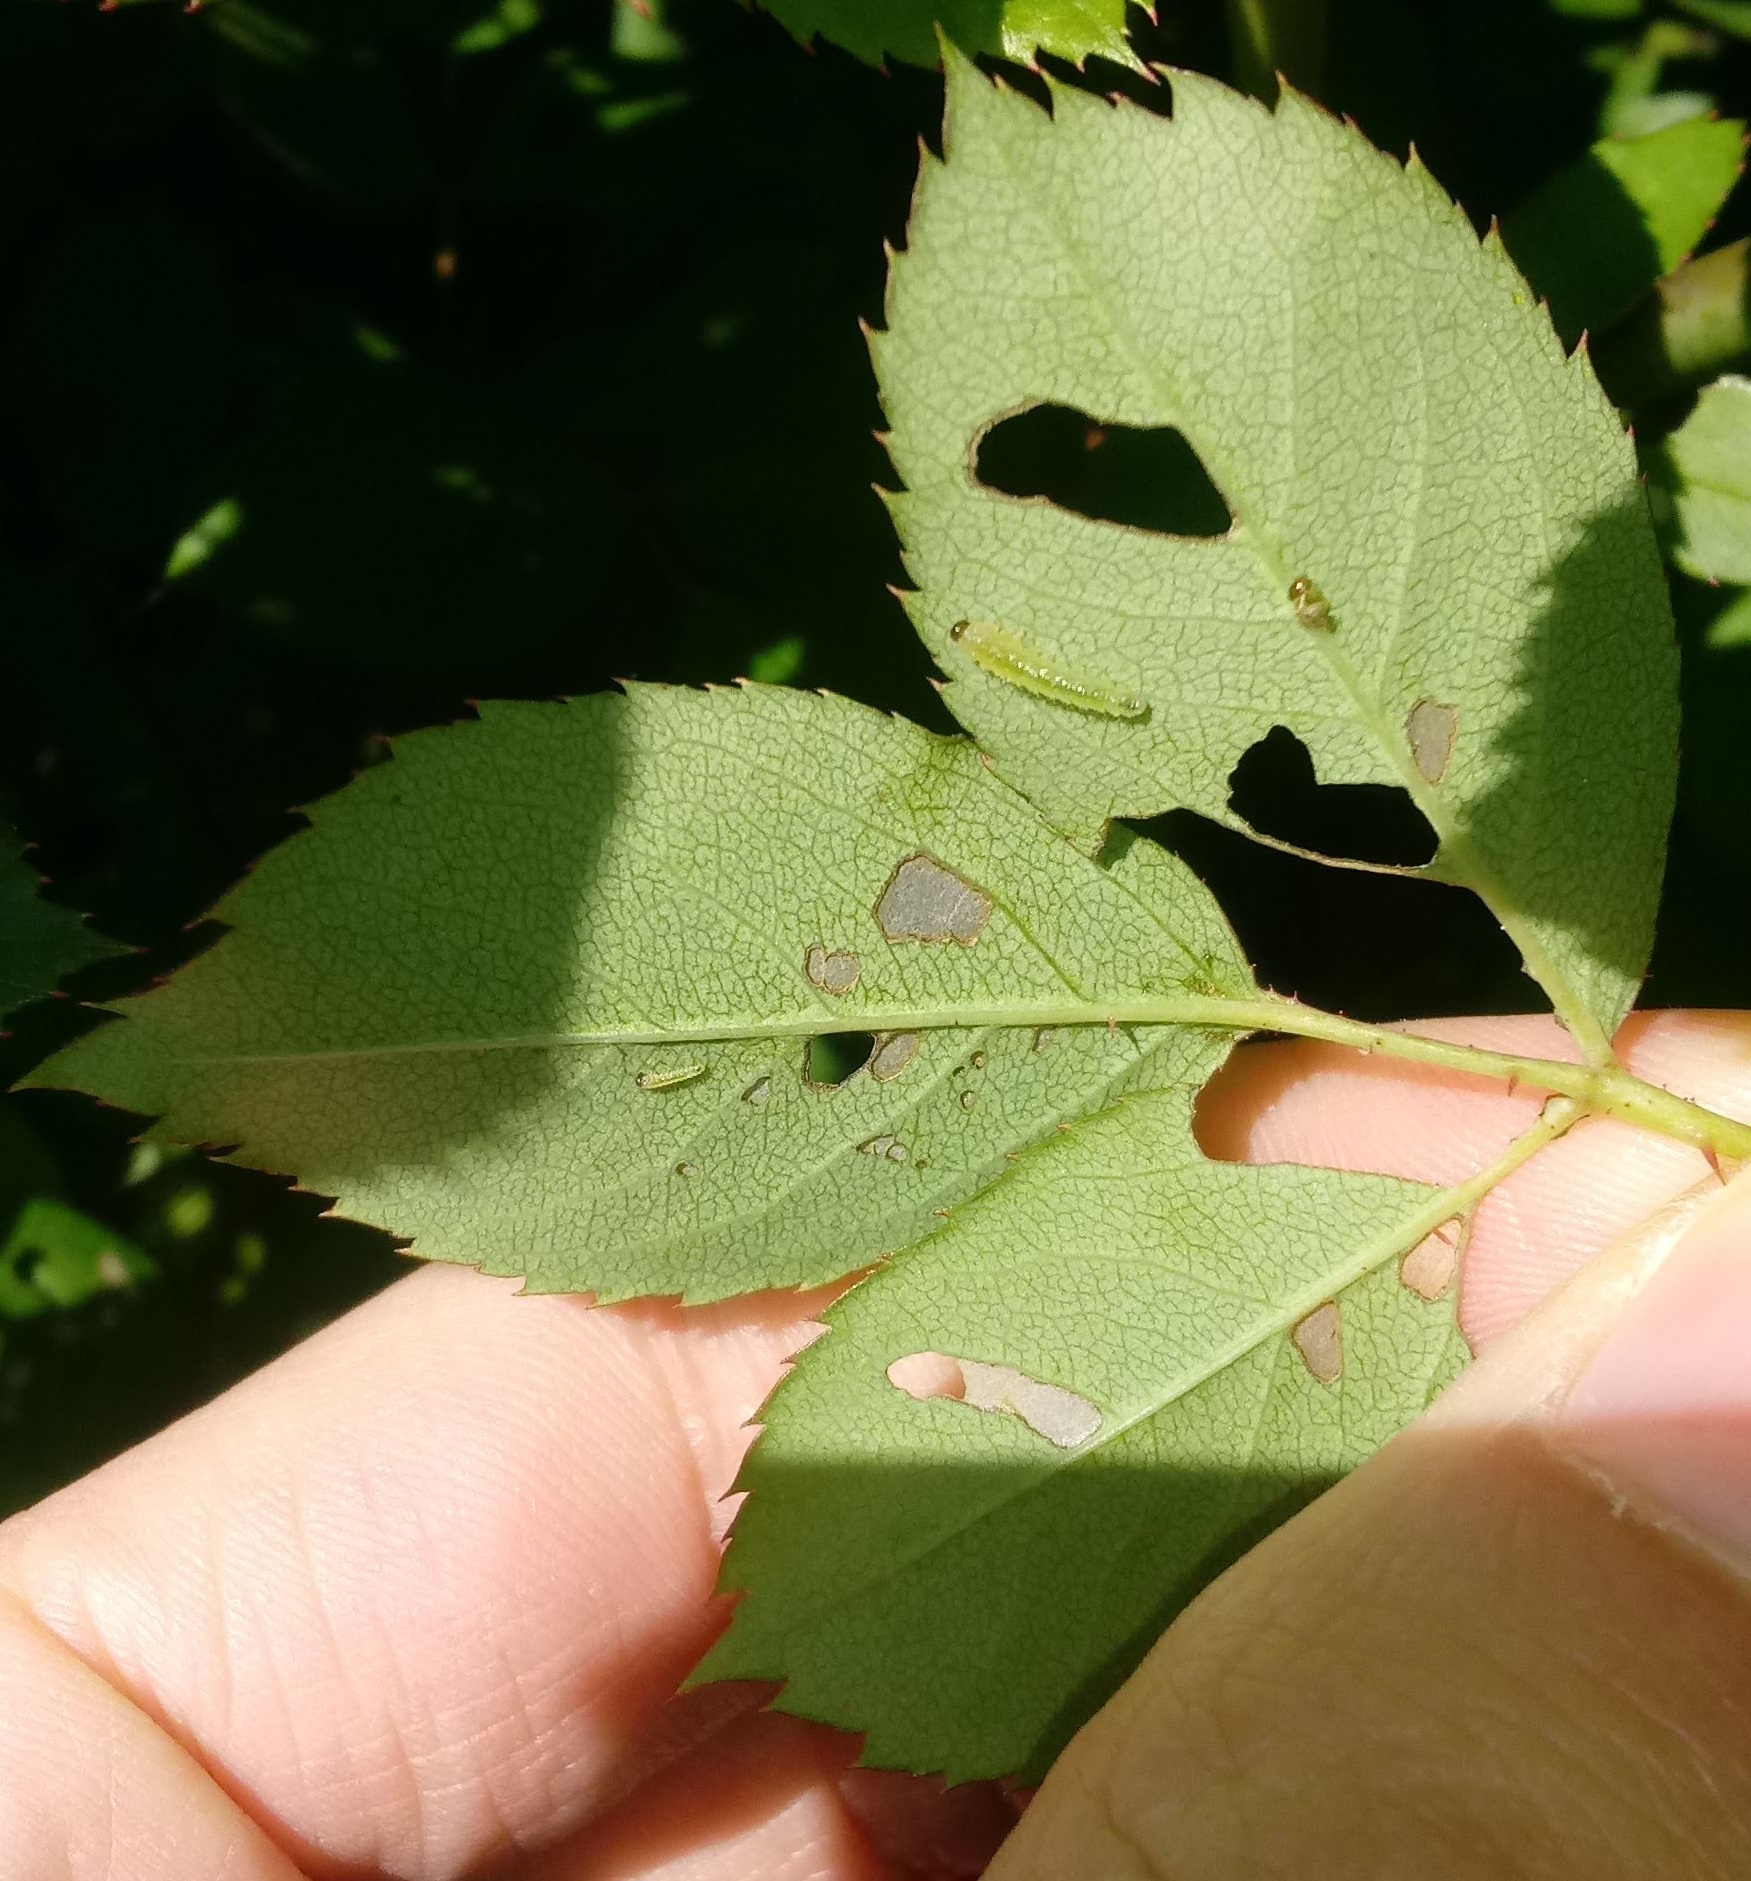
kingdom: Animalia
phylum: Arthropoda
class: Insecta
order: Hymenoptera
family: Tenthredinidae
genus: Cladius
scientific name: Cladius pectinicornis
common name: Sawfly
